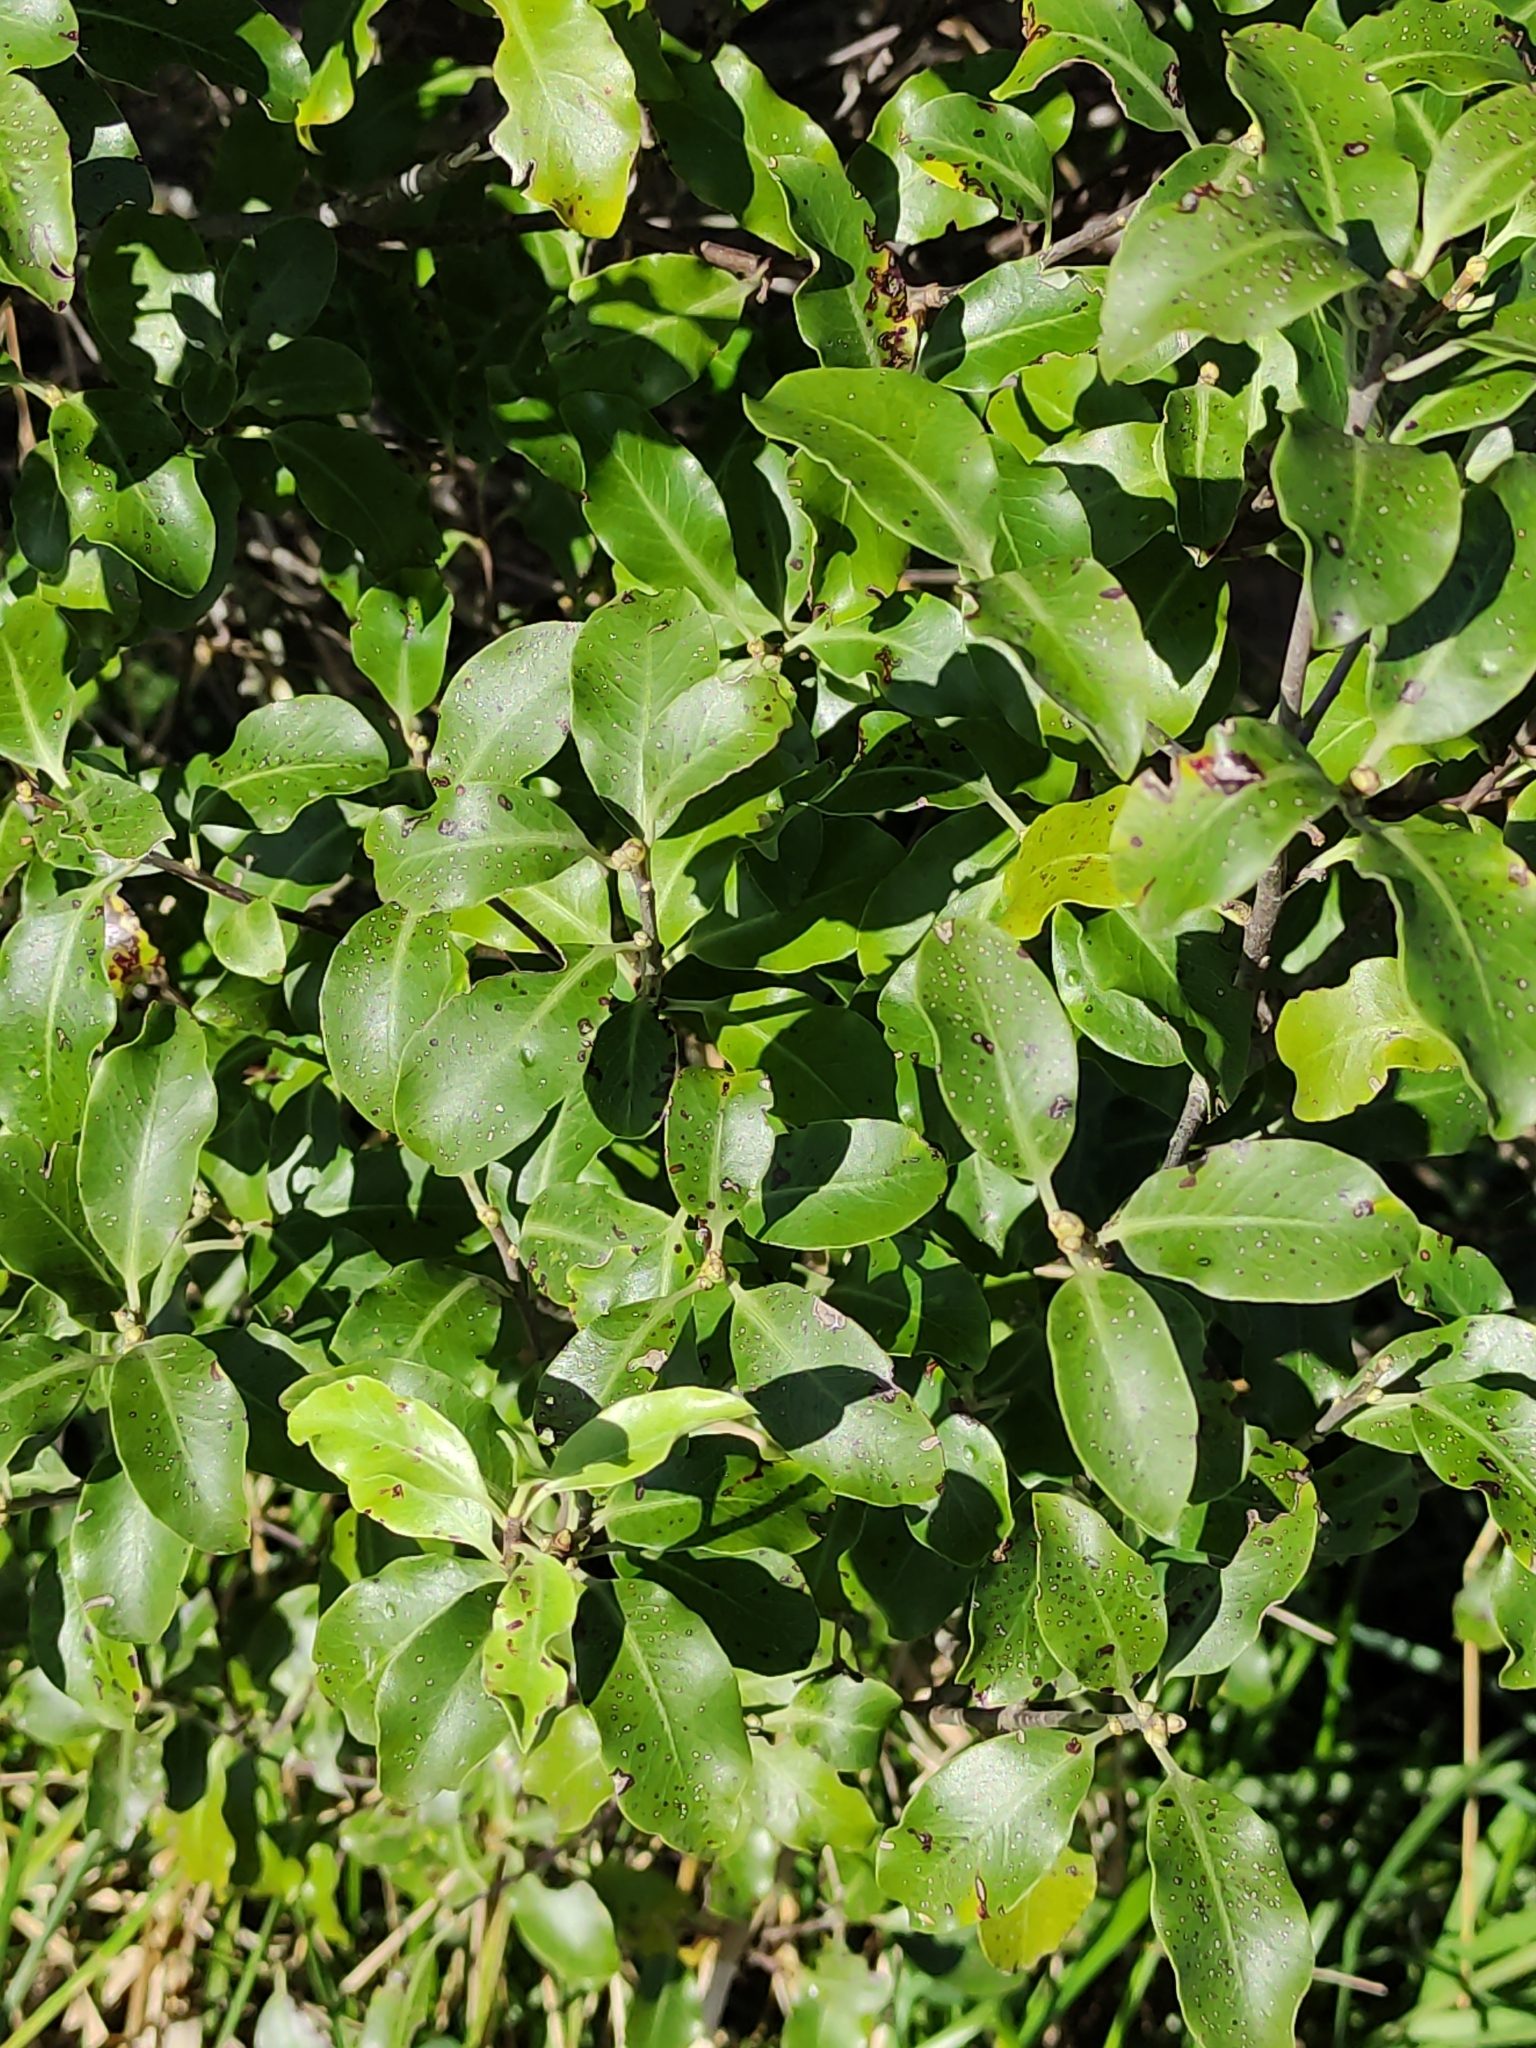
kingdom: Plantae
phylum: Tracheophyta
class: Magnoliopsida
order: Apiales
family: Pittosporaceae
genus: Pittosporum
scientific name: Pittosporum tenuifolium
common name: Kohuhu
